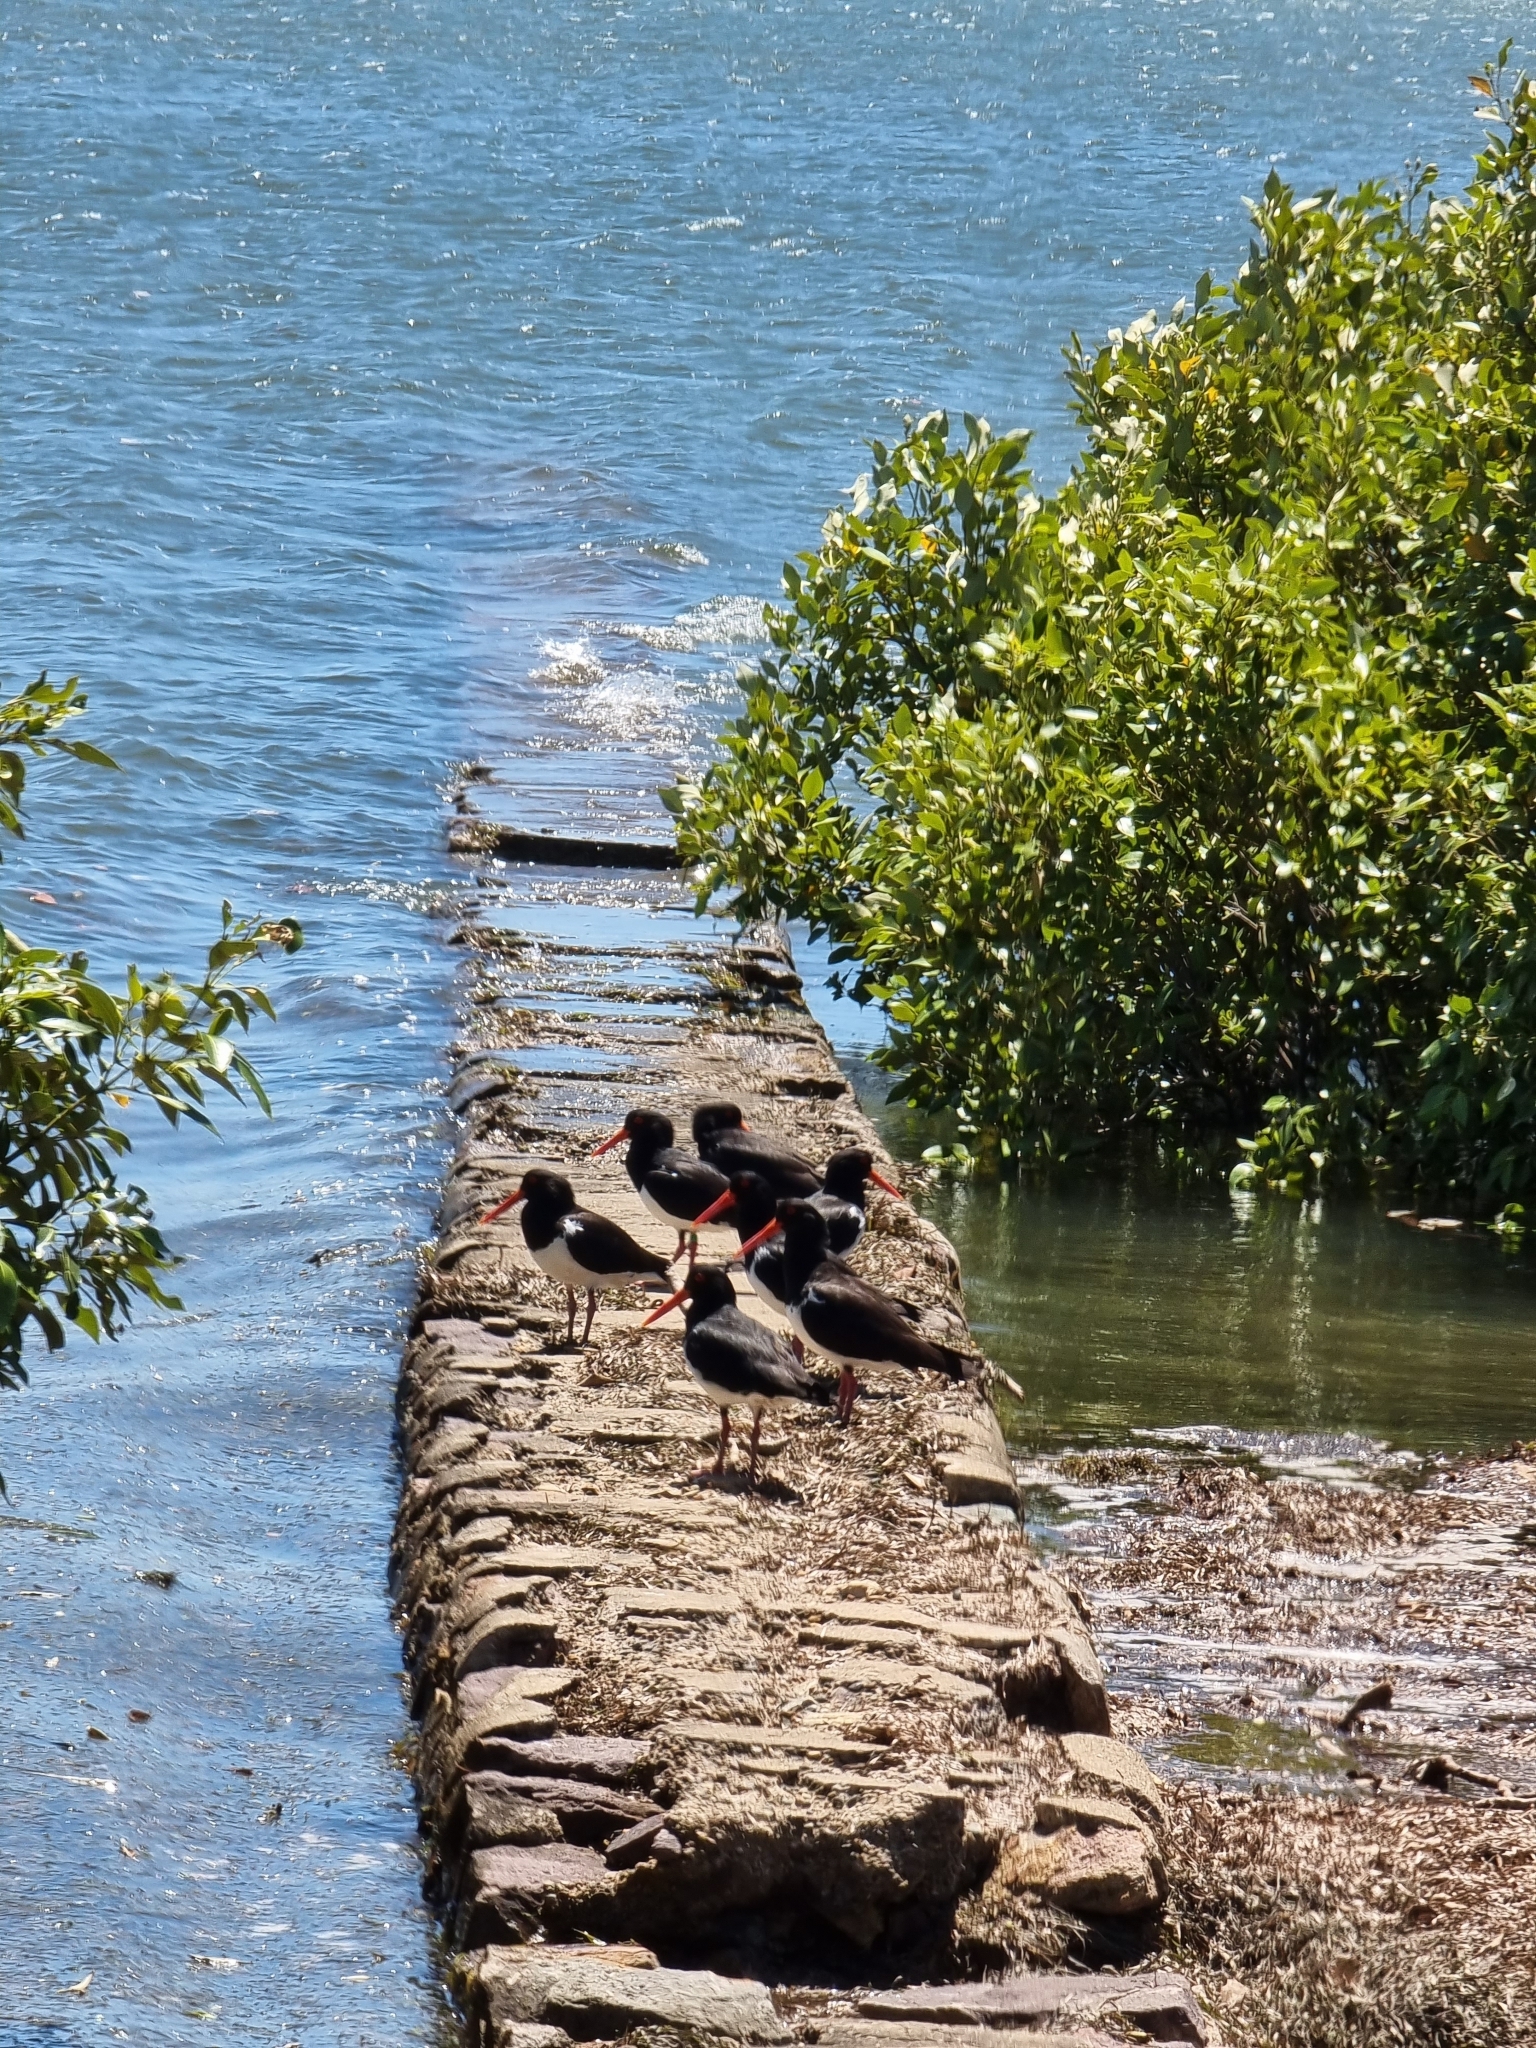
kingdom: Animalia
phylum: Chordata
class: Aves
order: Charadriiformes
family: Haematopodidae
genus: Haematopus
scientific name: Haematopus longirostris
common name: Pied oystercatcher
